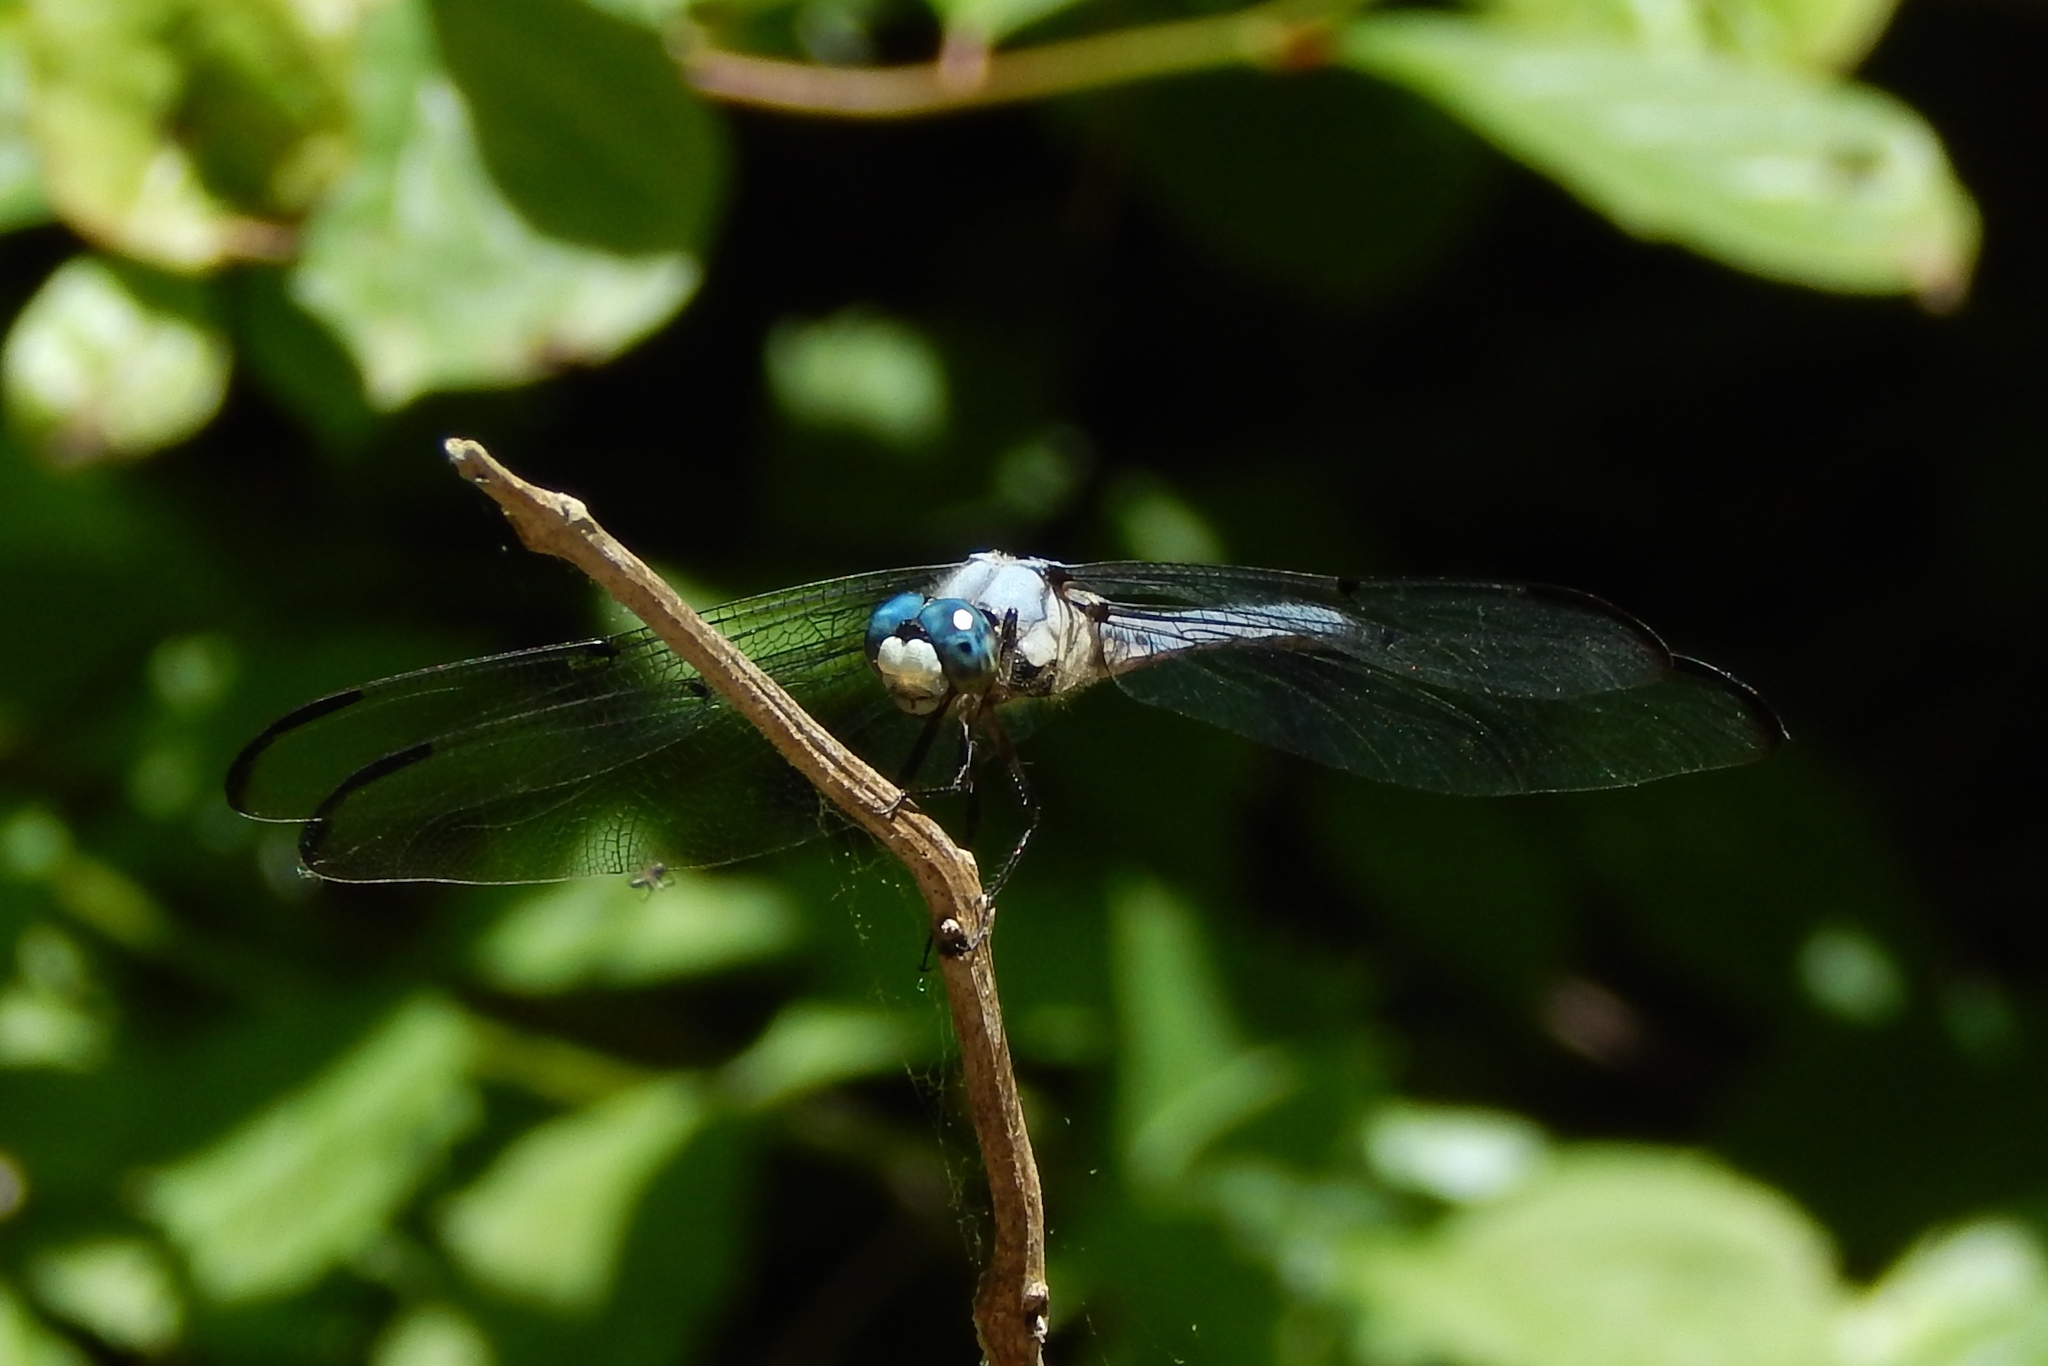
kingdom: Animalia
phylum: Arthropoda
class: Insecta
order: Odonata
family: Libellulidae
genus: Libellula
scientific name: Libellula vibrans
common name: Great blue skimmer
